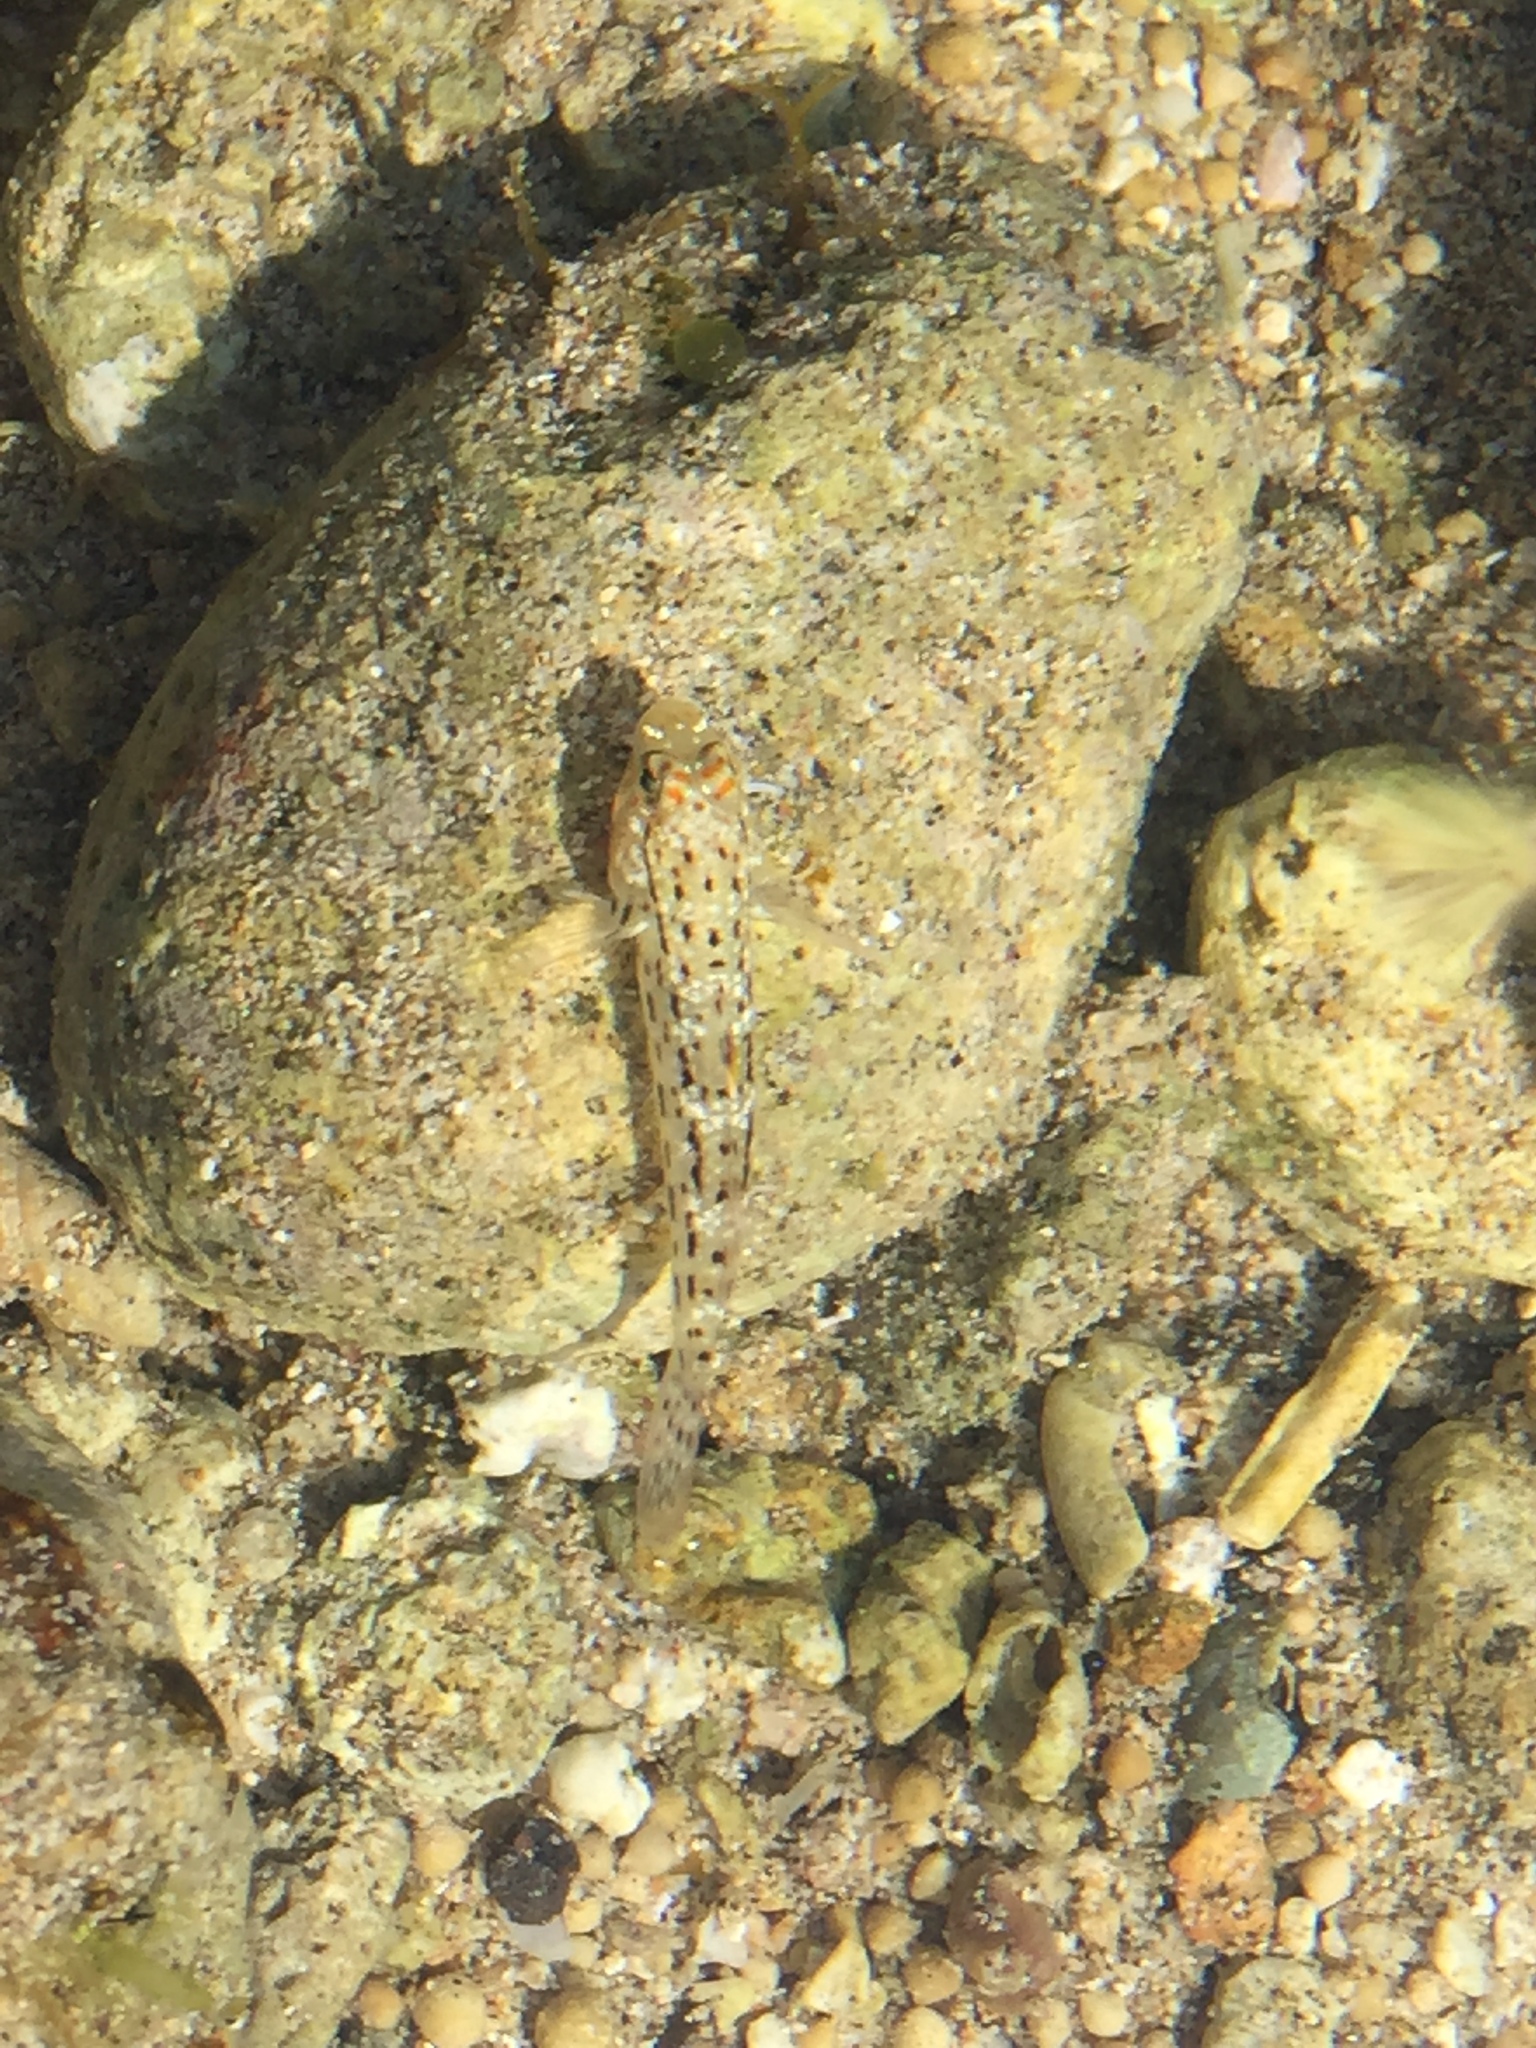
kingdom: Animalia
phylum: Chordata
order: Perciformes
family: Gobiidae
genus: Istigobius
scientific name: Istigobius ornatus
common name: Ornate goby
